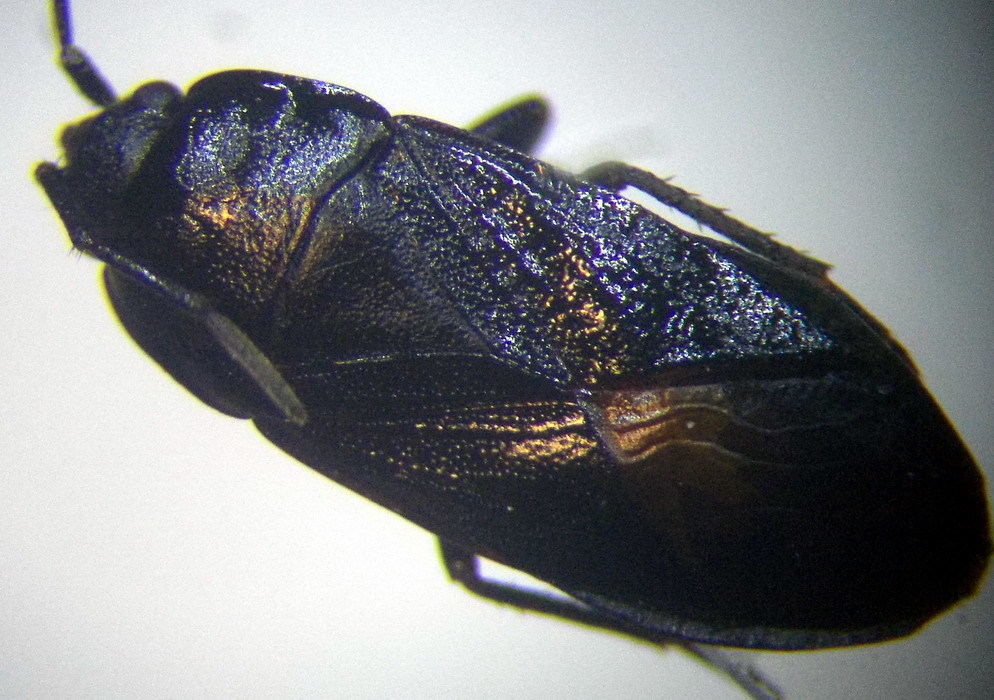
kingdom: Animalia
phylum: Arthropoda
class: Insecta
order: Hemiptera
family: Rhyparochromidae
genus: Aphanus
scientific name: Aphanus rolandri
